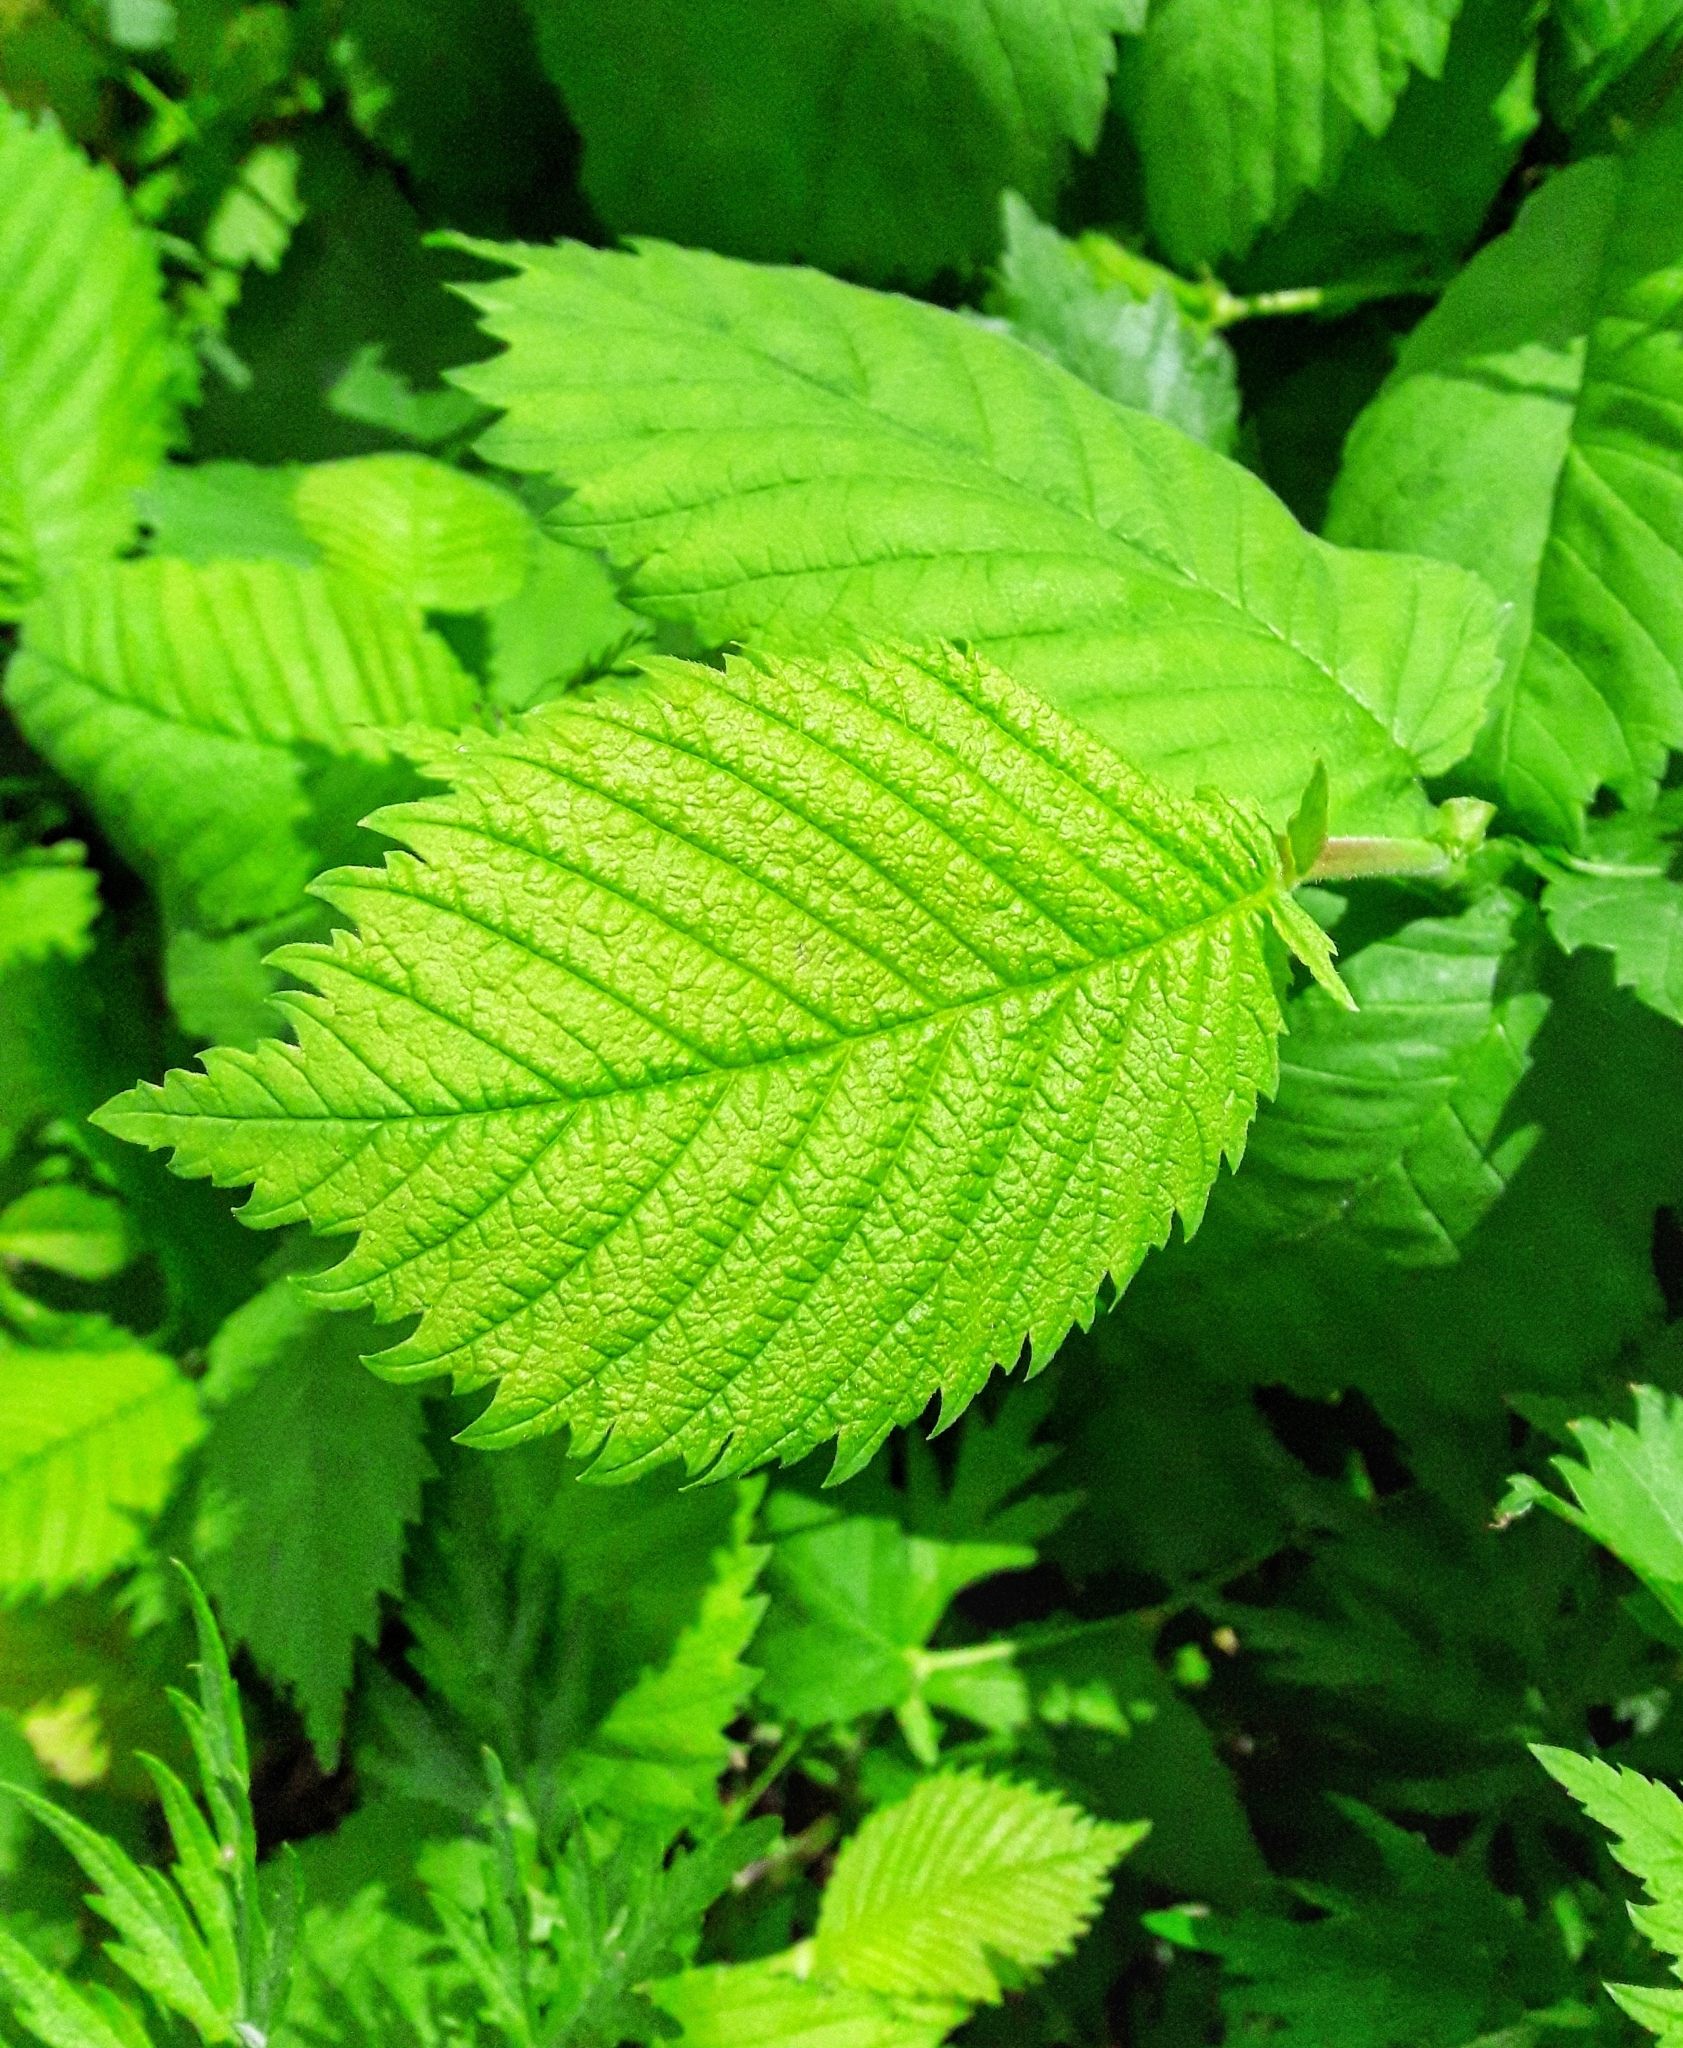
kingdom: Plantae
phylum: Tracheophyta
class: Magnoliopsida
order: Rosales
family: Ulmaceae
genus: Ulmus
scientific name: Ulmus laevis
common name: European white-elm
